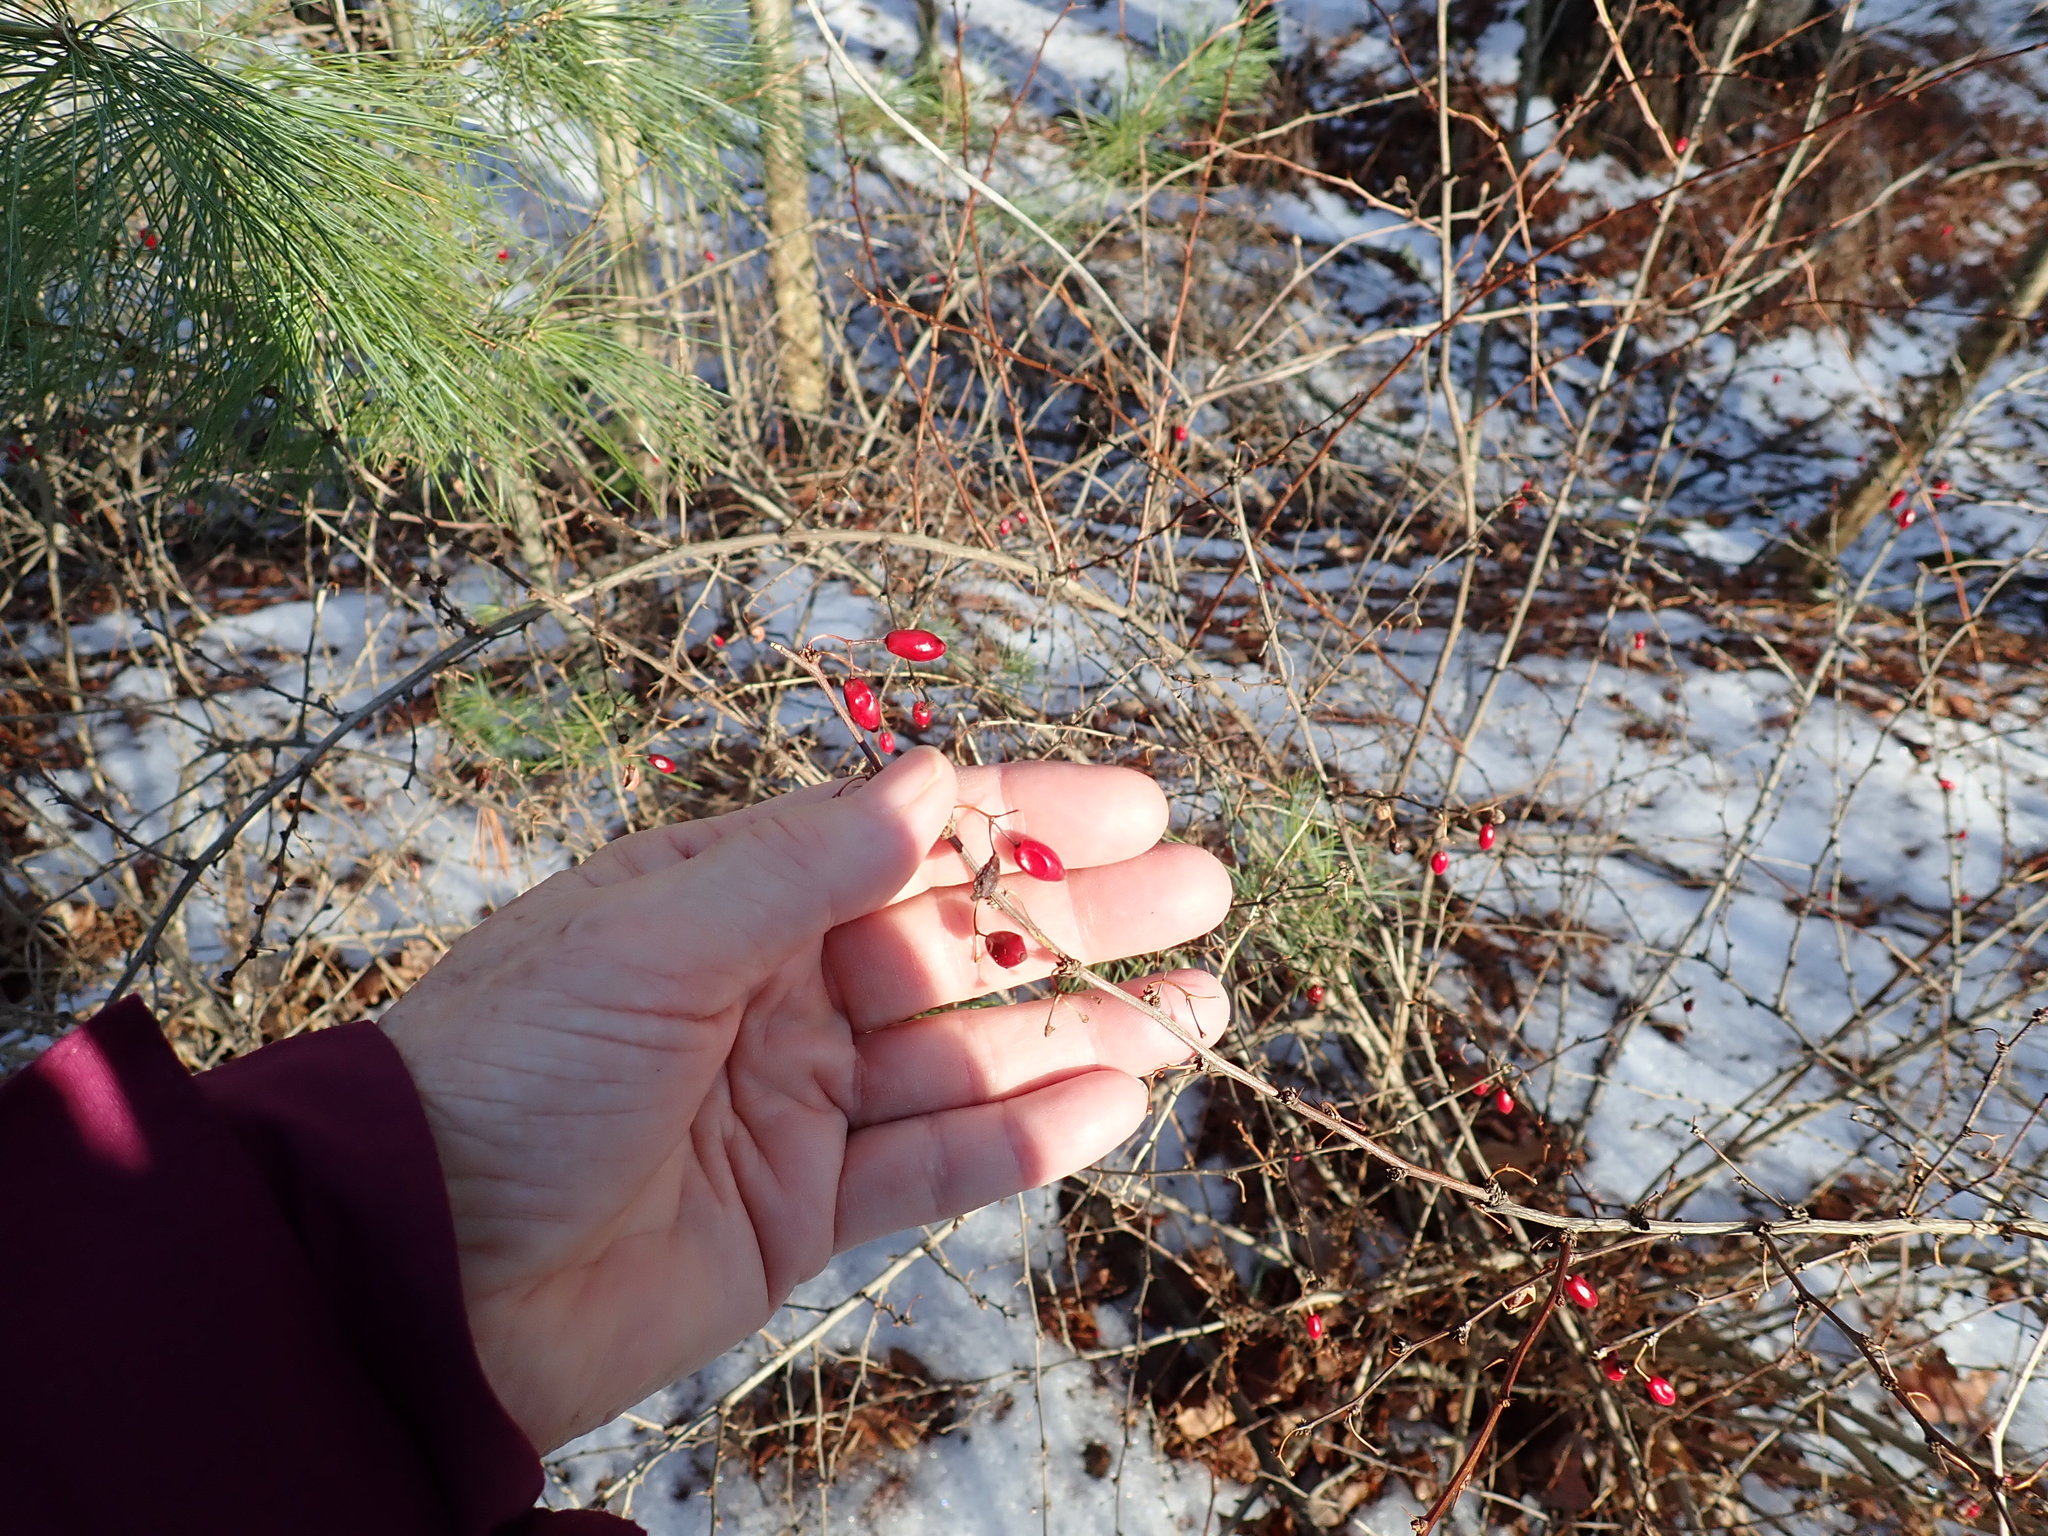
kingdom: Plantae
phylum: Tracheophyta
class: Magnoliopsida
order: Ranunculales
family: Berberidaceae
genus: Berberis
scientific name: Berberis thunbergii
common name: Japanese barberry
